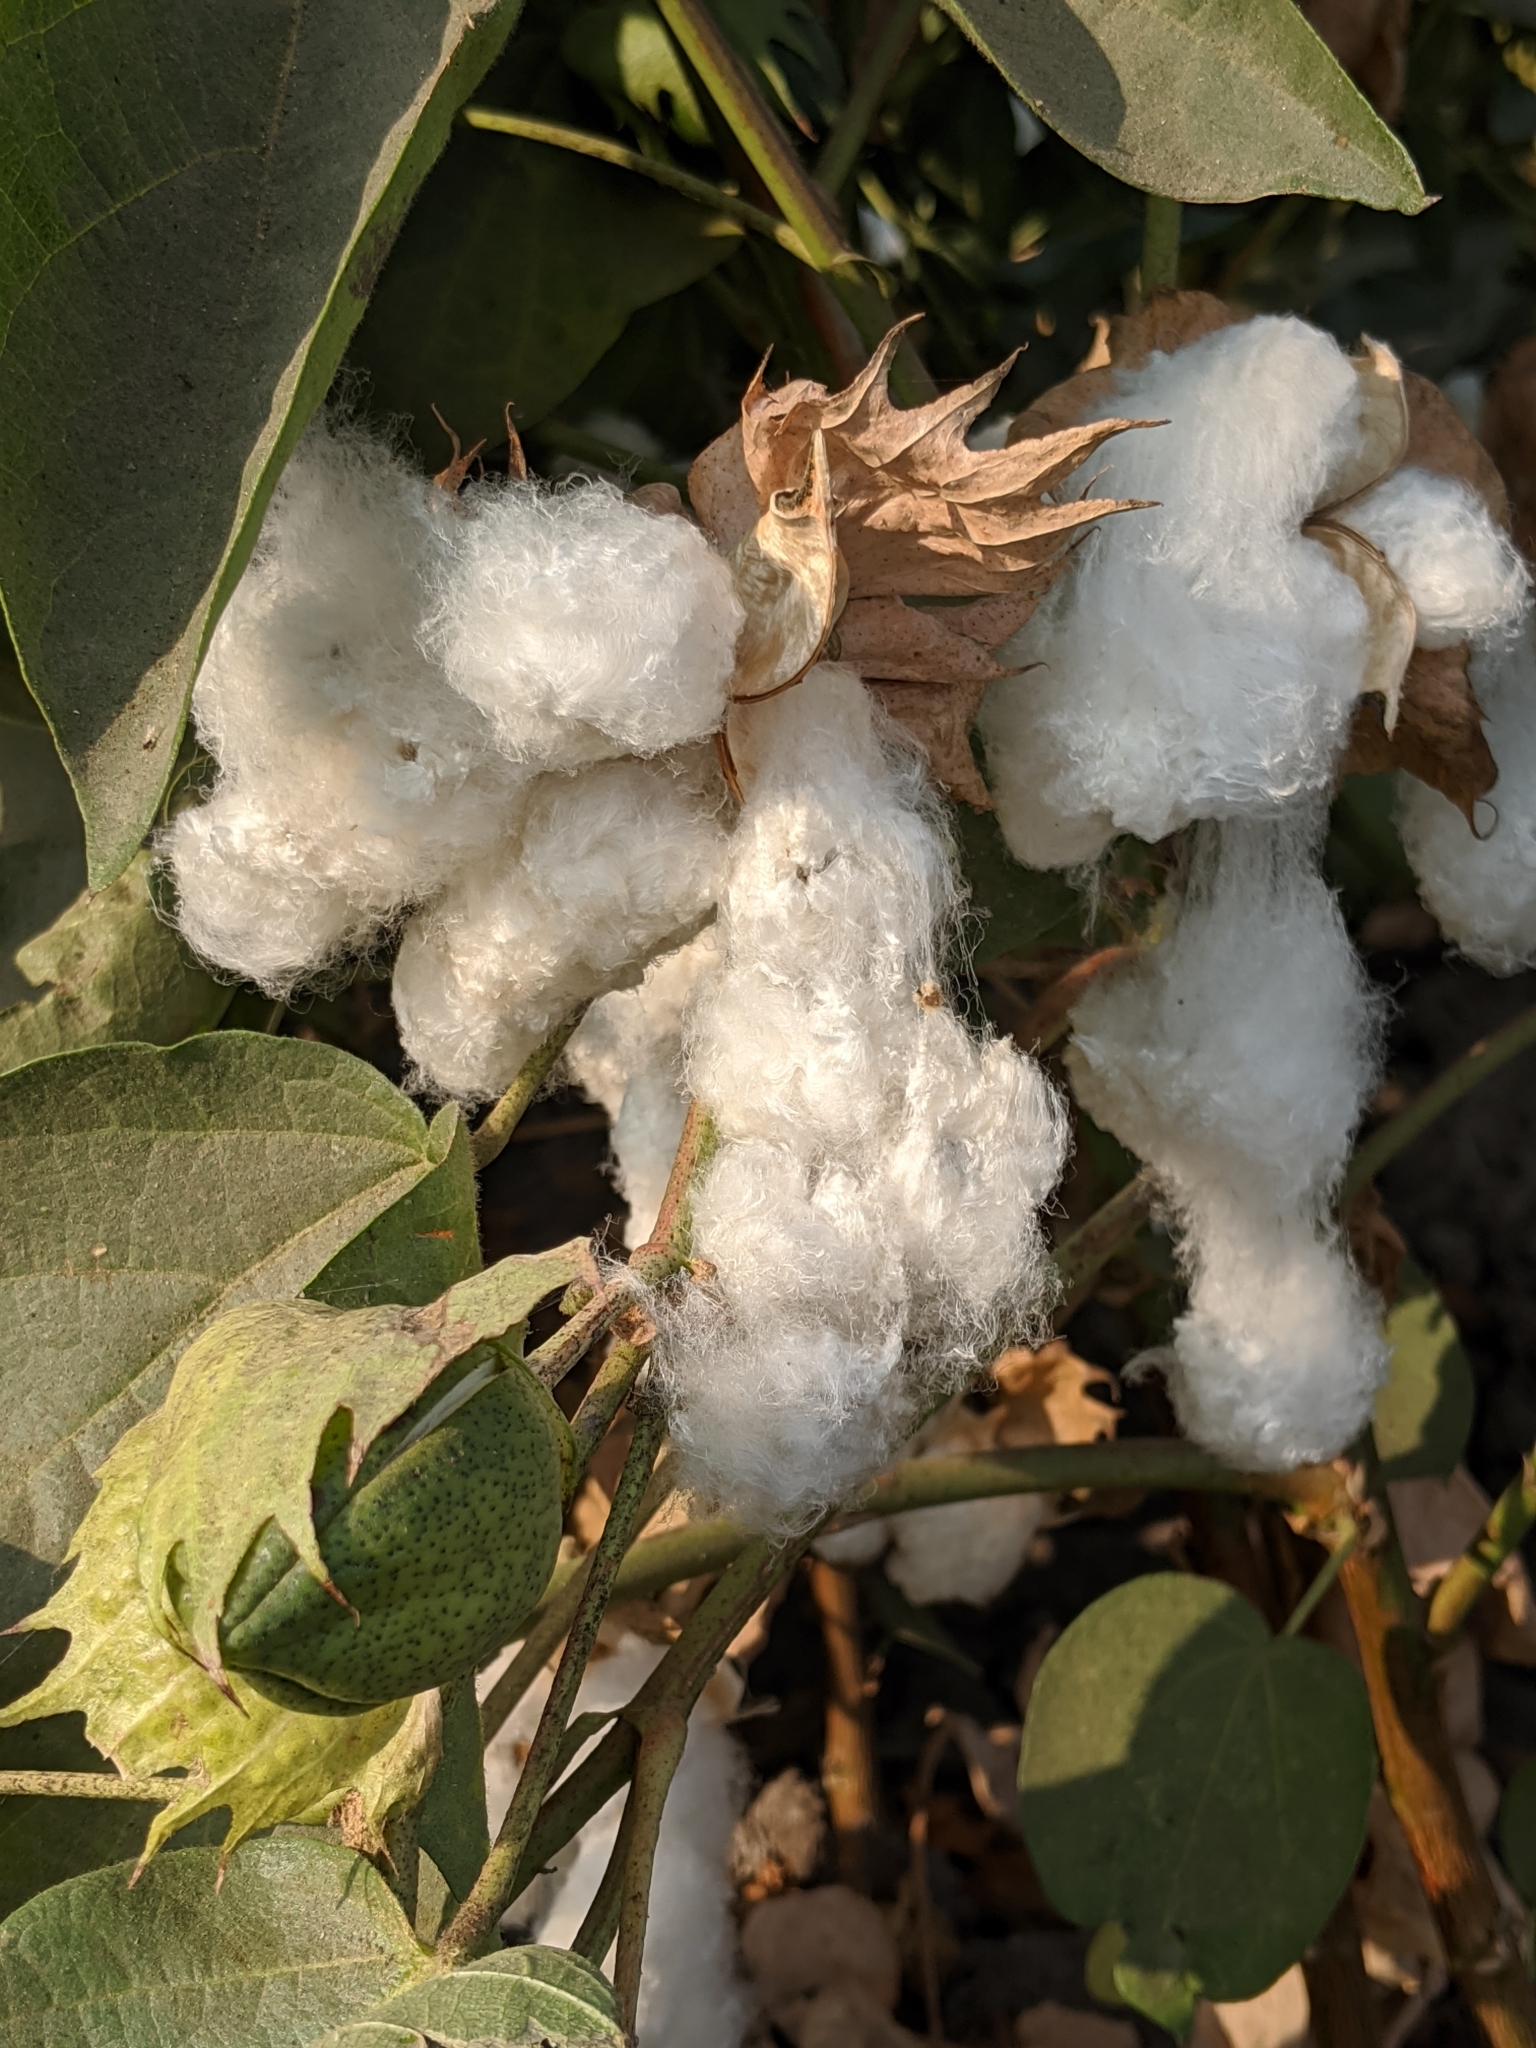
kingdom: Plantae
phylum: Tracheophyta
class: Magnoliopsida
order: Malvales
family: Malvaceae
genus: Gossypium
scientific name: Gossypium hirsutum
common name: Cotton
